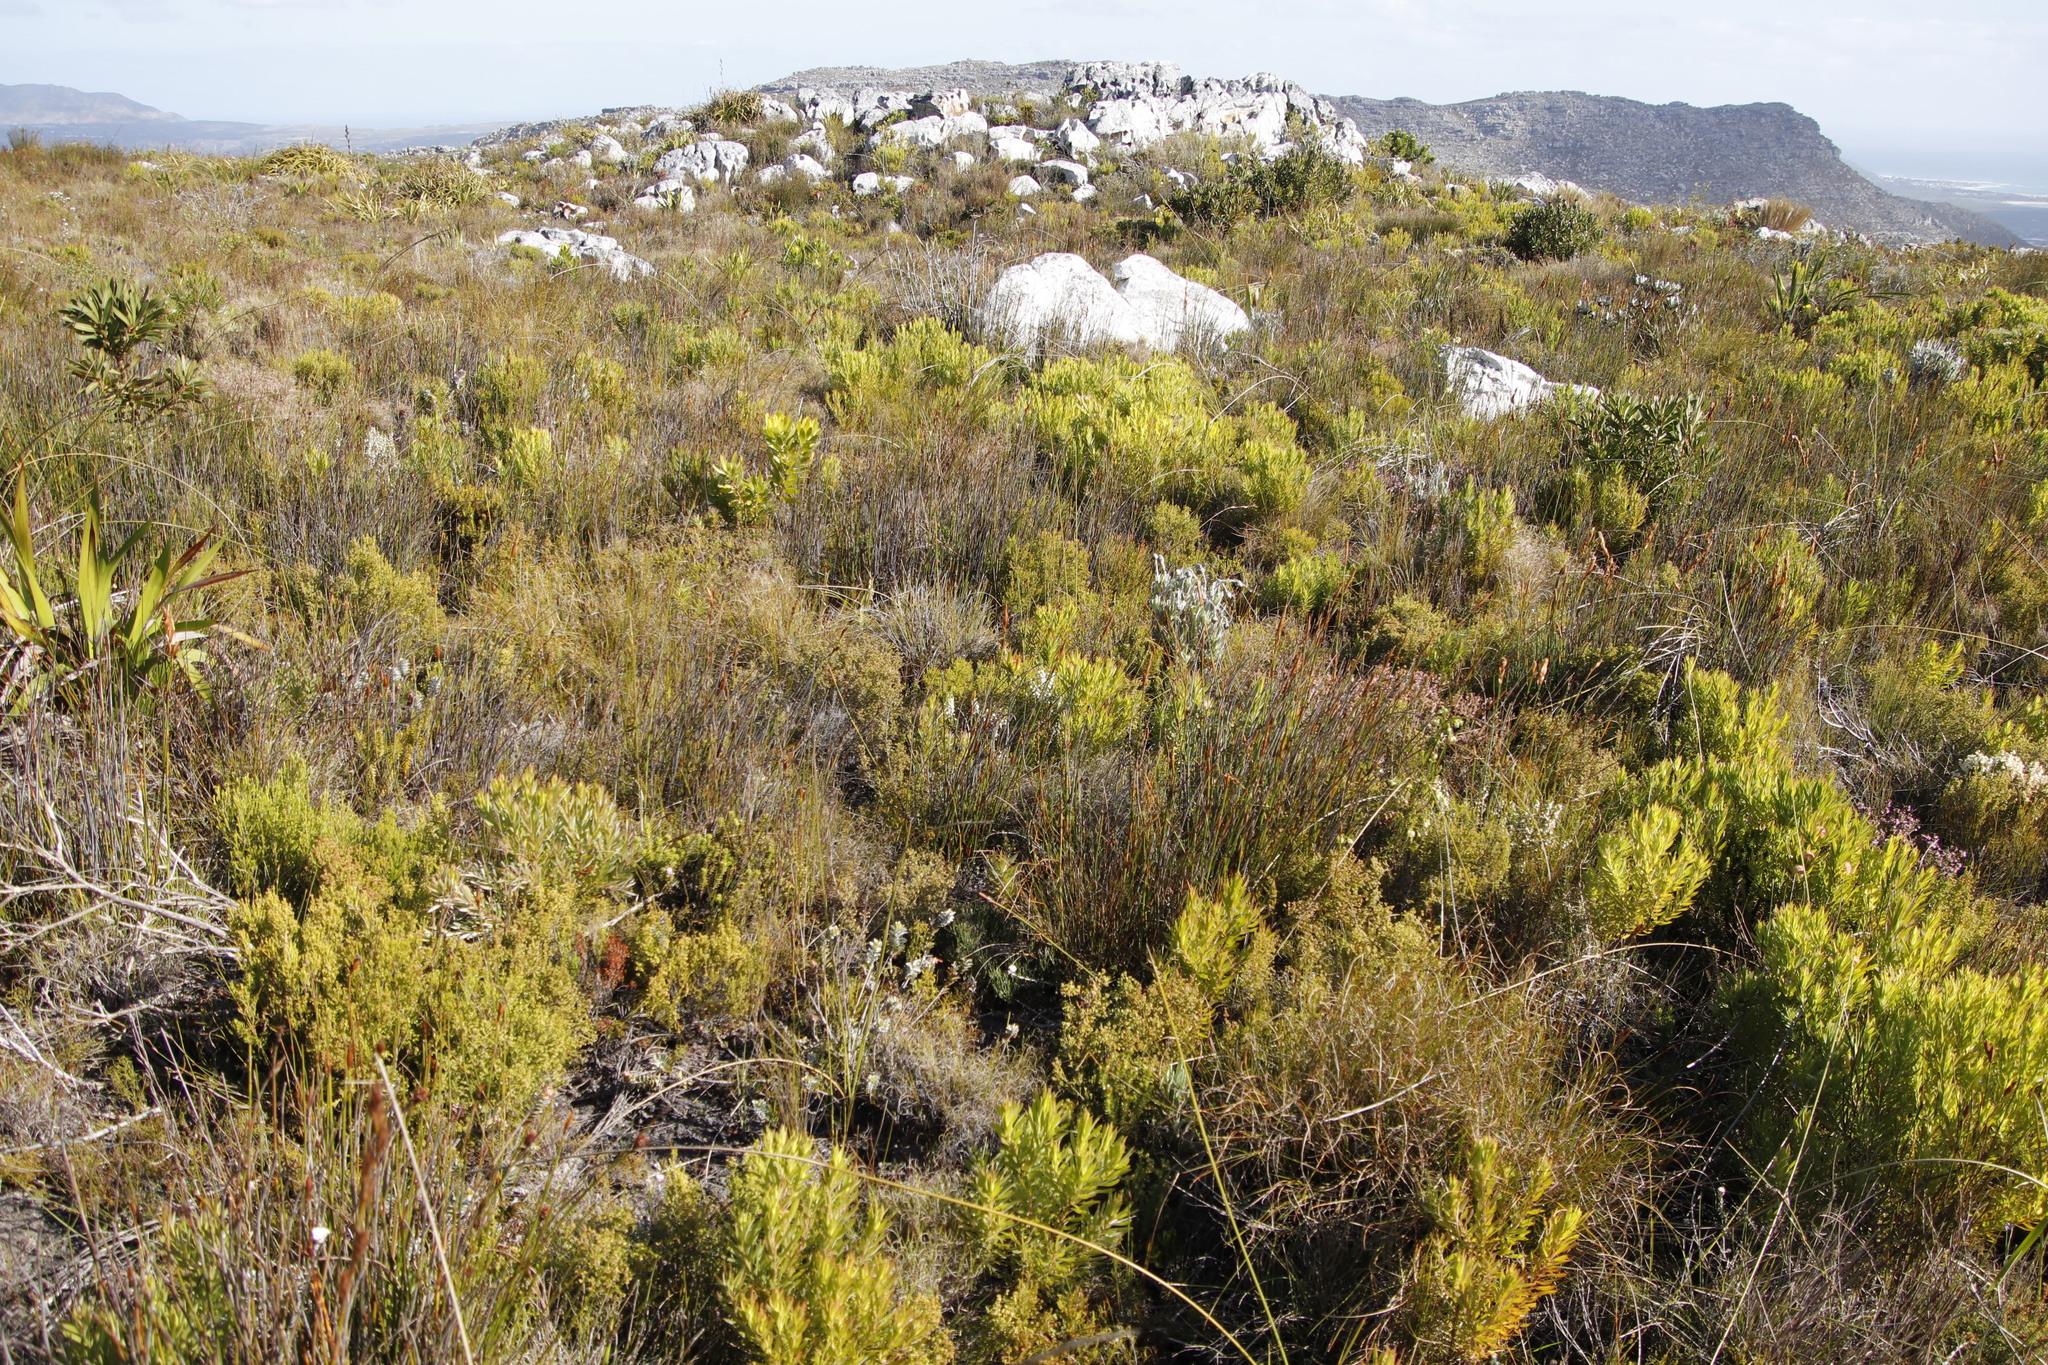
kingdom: Plantae
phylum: Tracheophyta
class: Magnoliopsida
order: Ericales
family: Ericaceae
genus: Erica
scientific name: Erica imbricata
